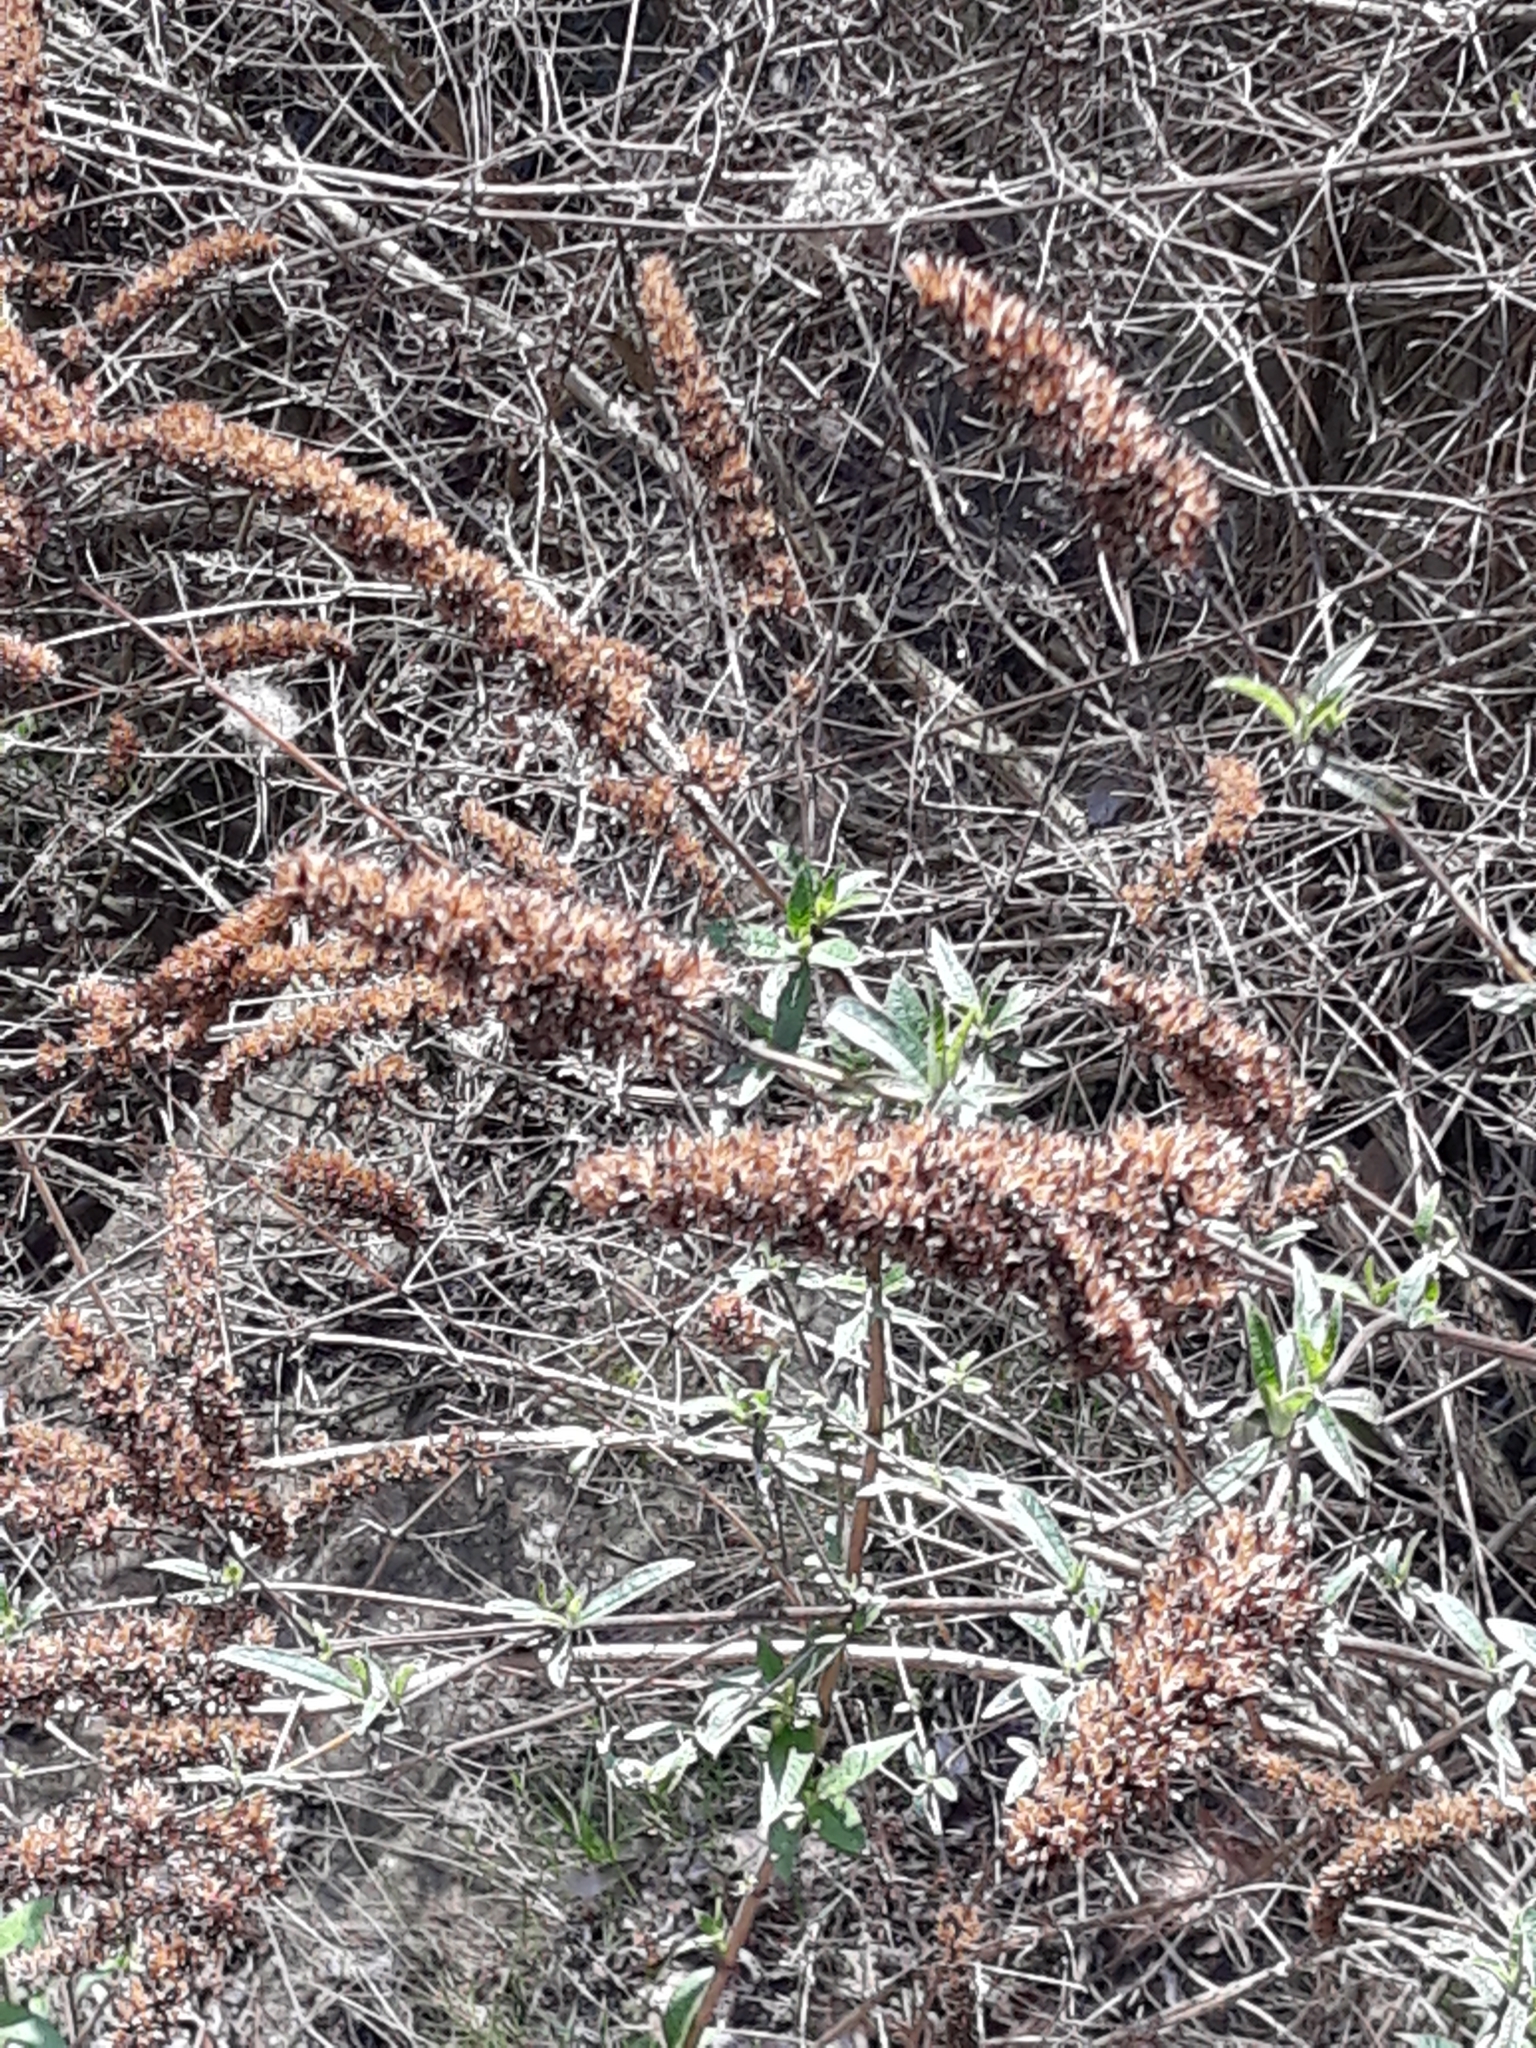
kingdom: Plantae
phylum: Tracheophyta
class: Magnoliopsida
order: Lamiales
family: Scrophulariaceae
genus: Buddleja
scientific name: Buddleja davidii
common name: Butterfly-bush
